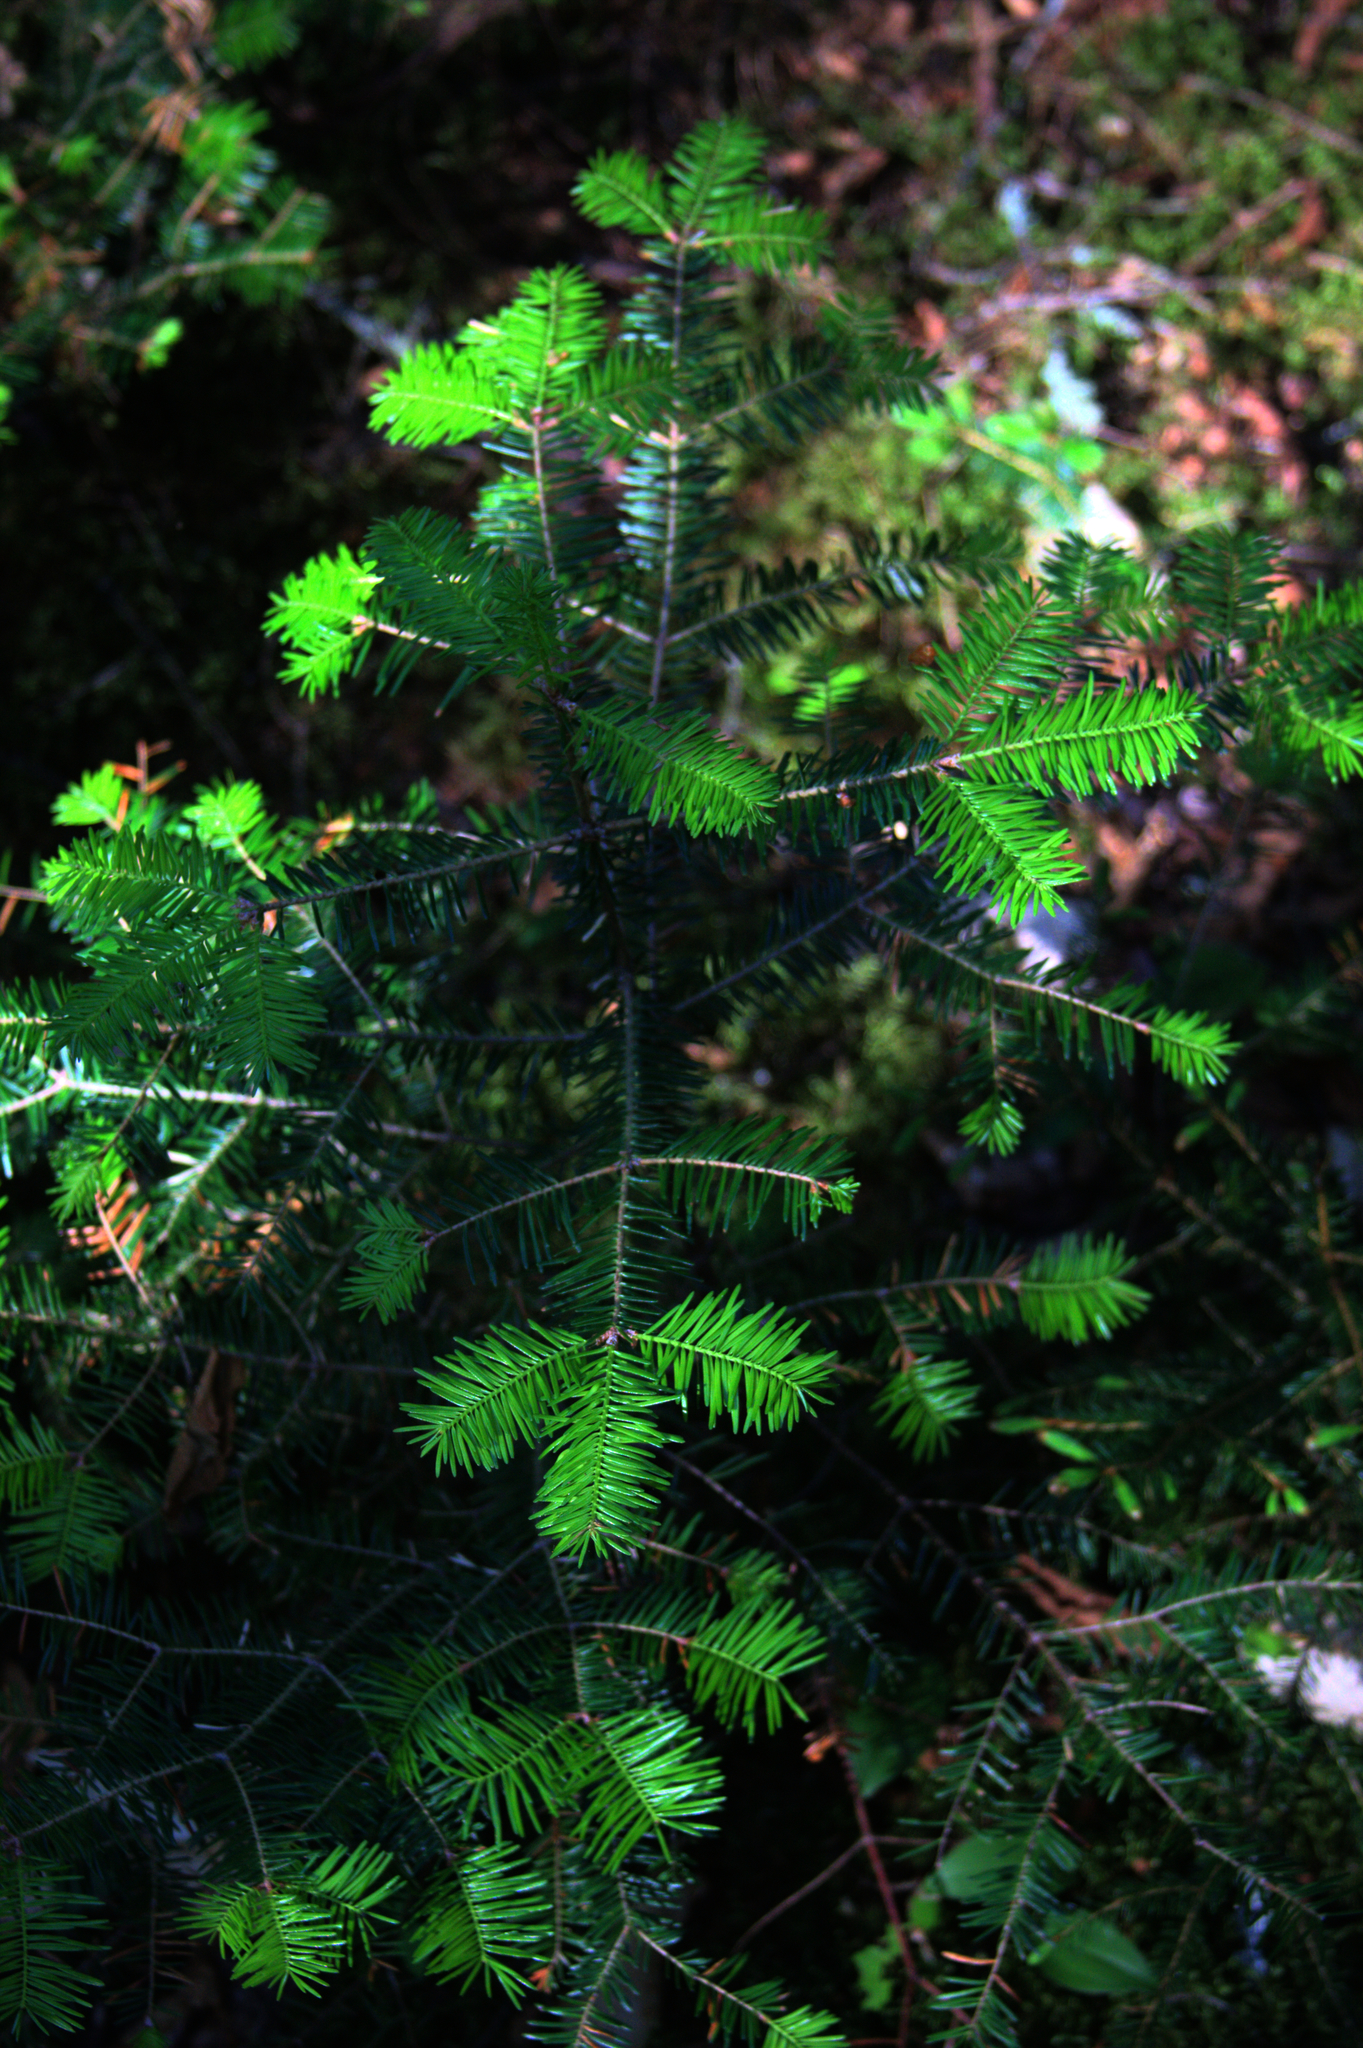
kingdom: Plantae
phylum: Tracheophyta
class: Pinopsida
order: Pinales
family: Pinaceae
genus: Abies
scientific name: Abies balsamea
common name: Balsam fir
